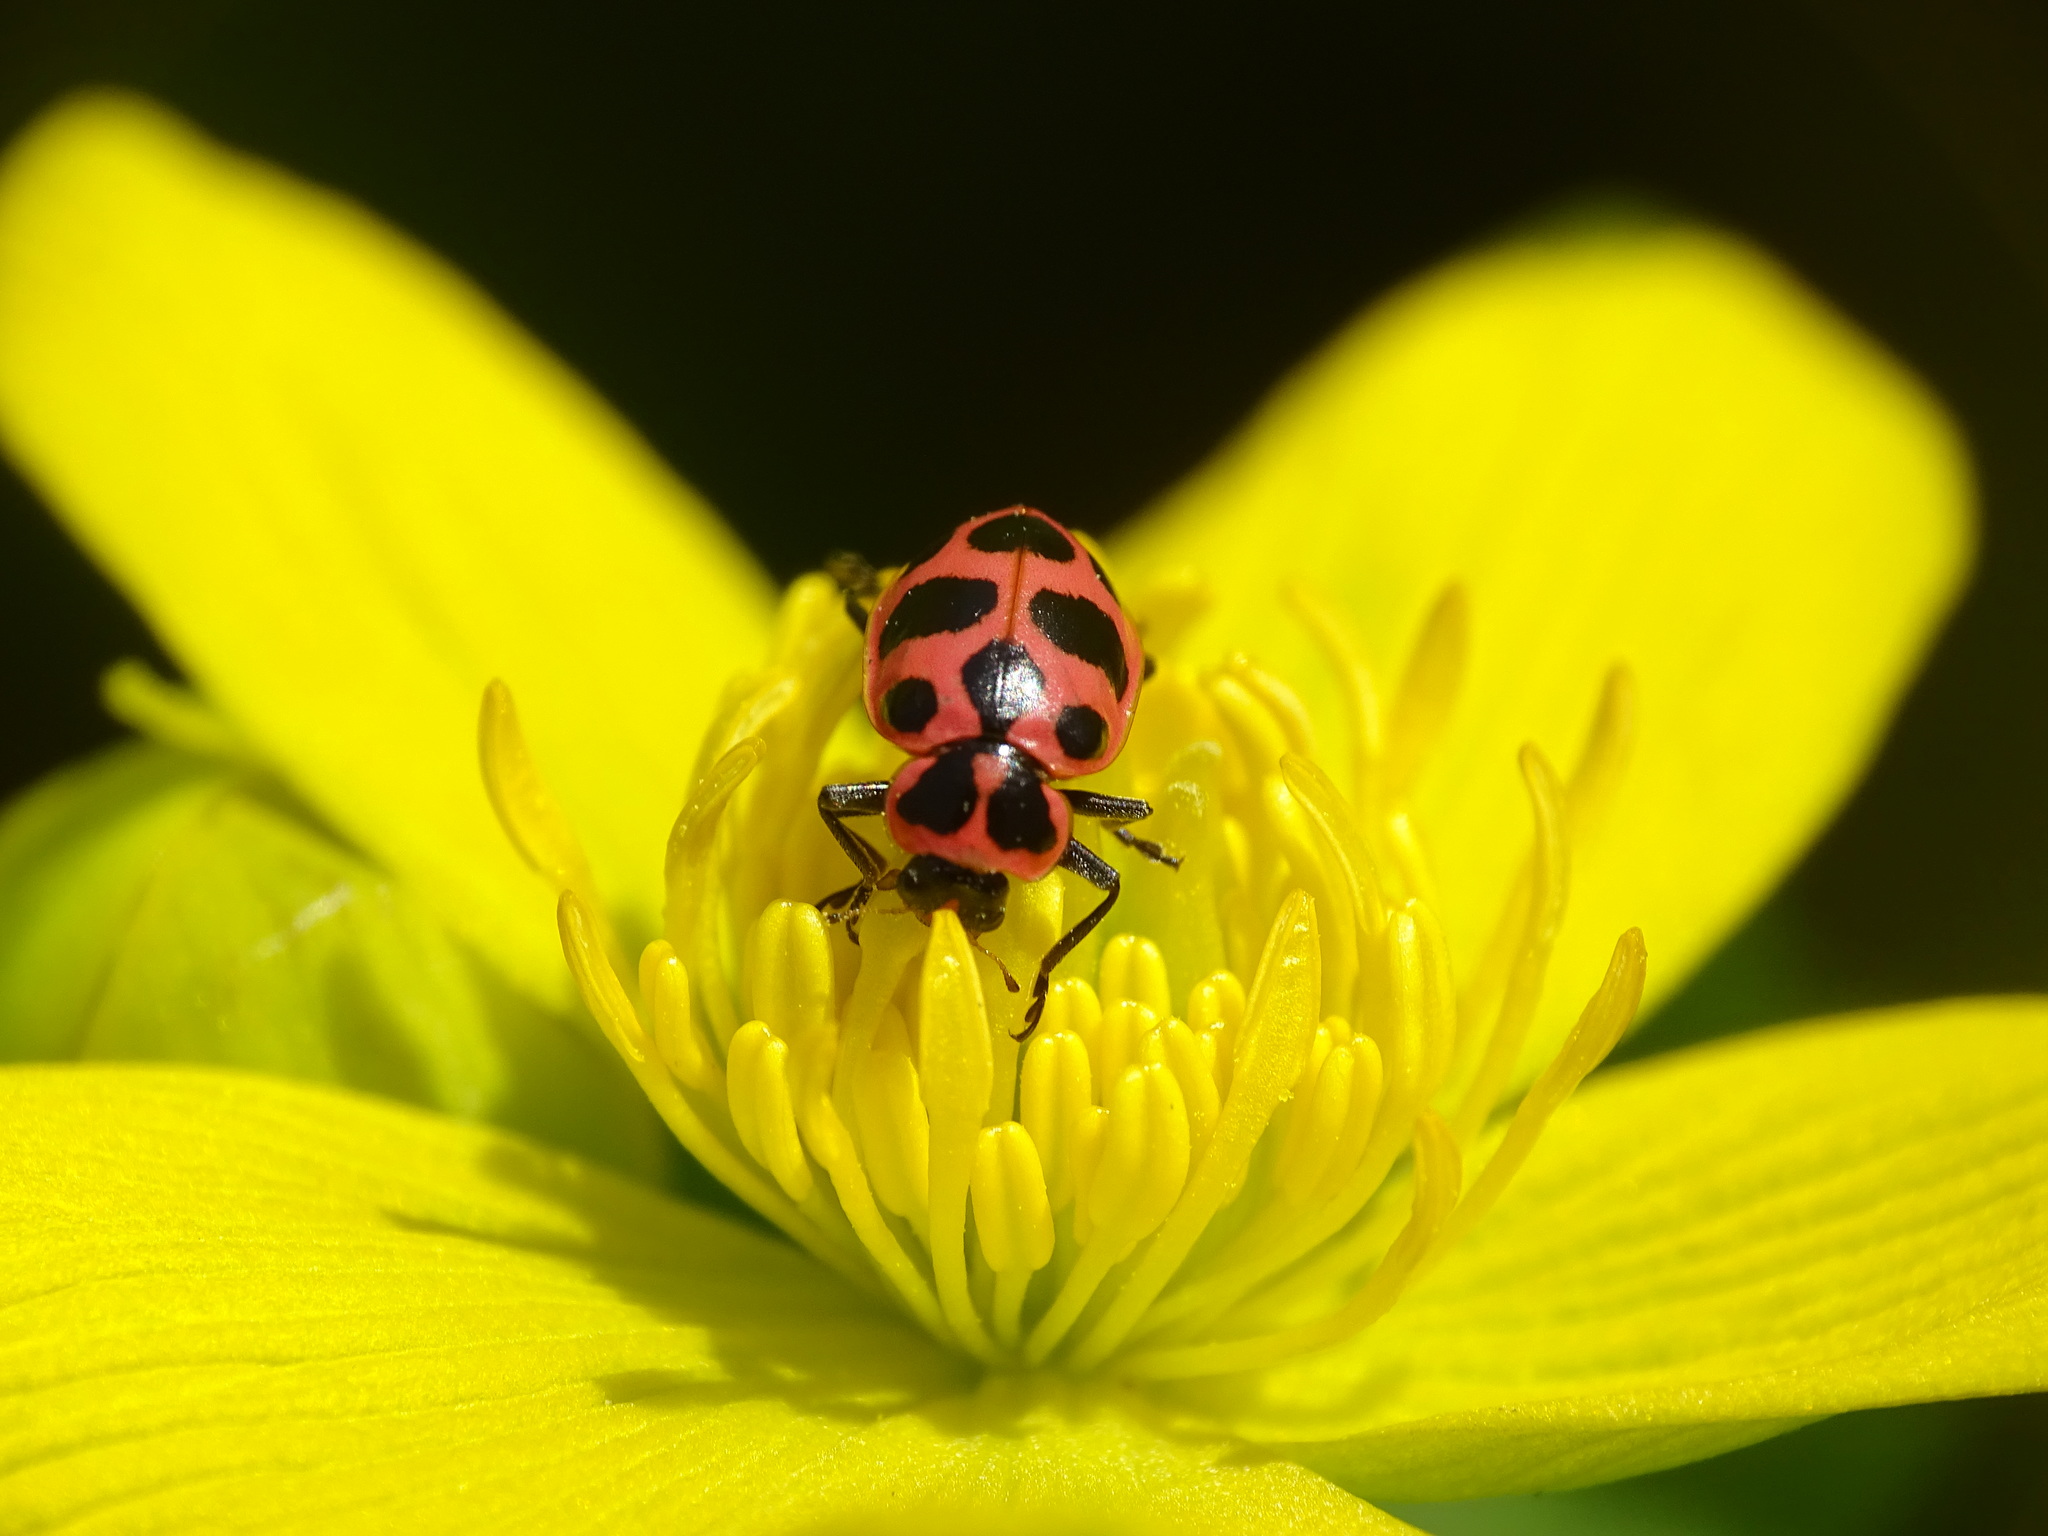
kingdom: Animalia
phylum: Arthropoda
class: Insecta
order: Coleoptera
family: Coccinellidae
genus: Coleomegilla
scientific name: Coleomegilla maculata
